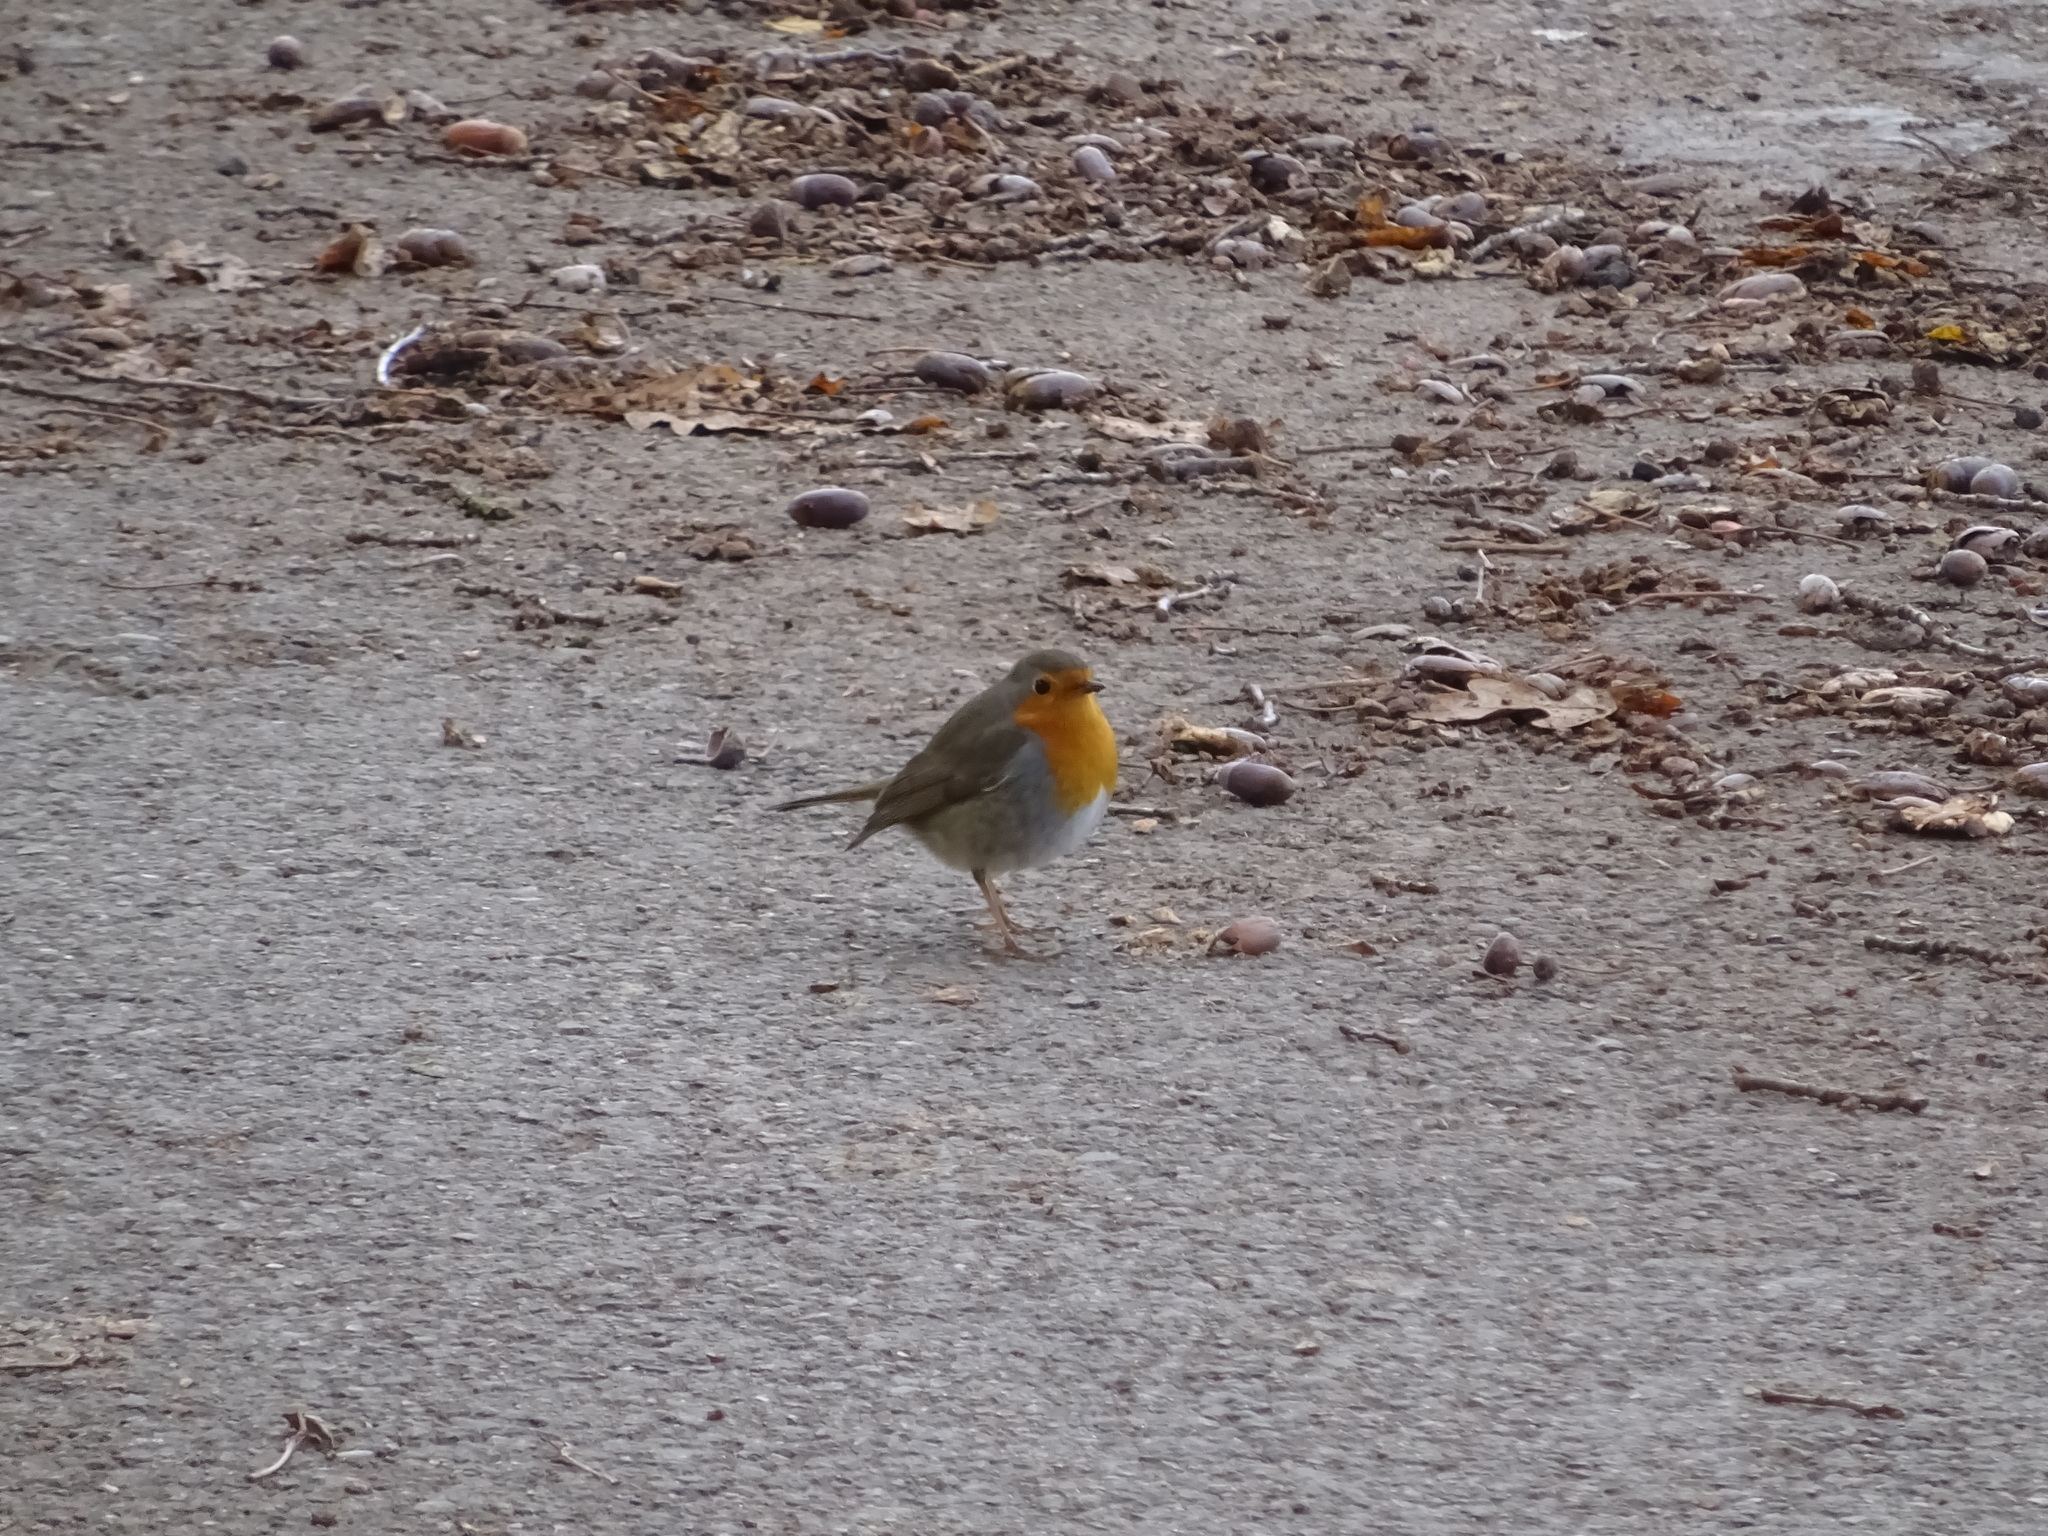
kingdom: Animalia
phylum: Chordata
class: Aves
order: Passeriformes
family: Muscicapidae
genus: Erithacus
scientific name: Erithacus rubecula
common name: European robin
